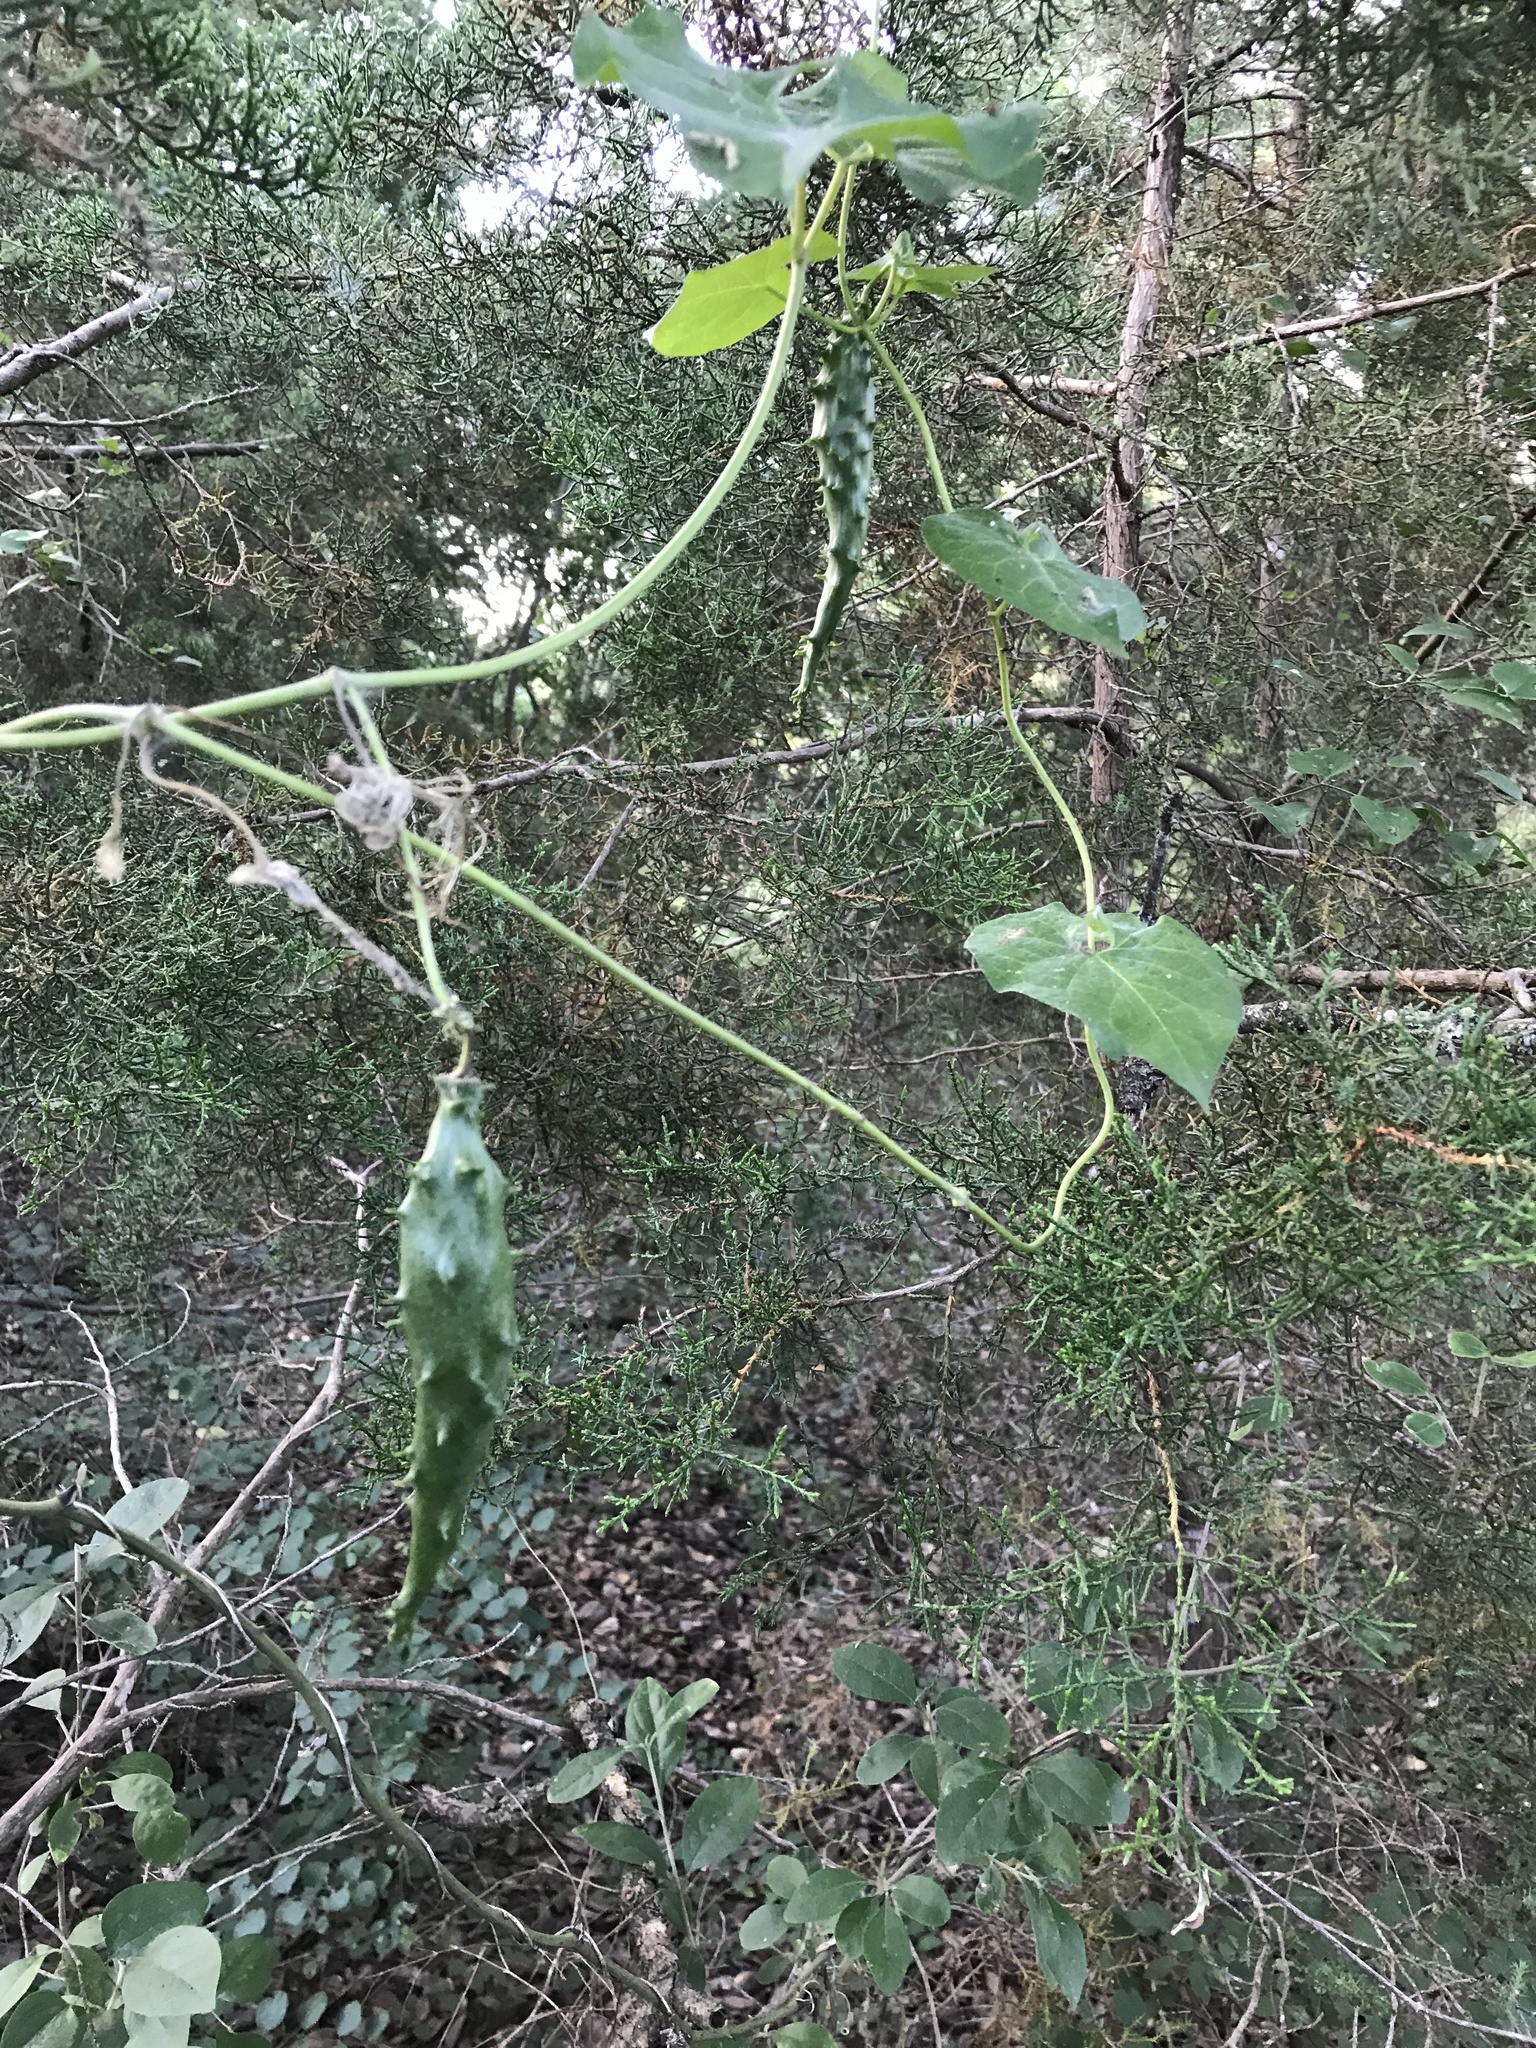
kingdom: Plantae
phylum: Tracheophyta
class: Magnoliopsida
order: Gentianales
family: Apocynaceae
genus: Matelea
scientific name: Matelea edwardsensis
